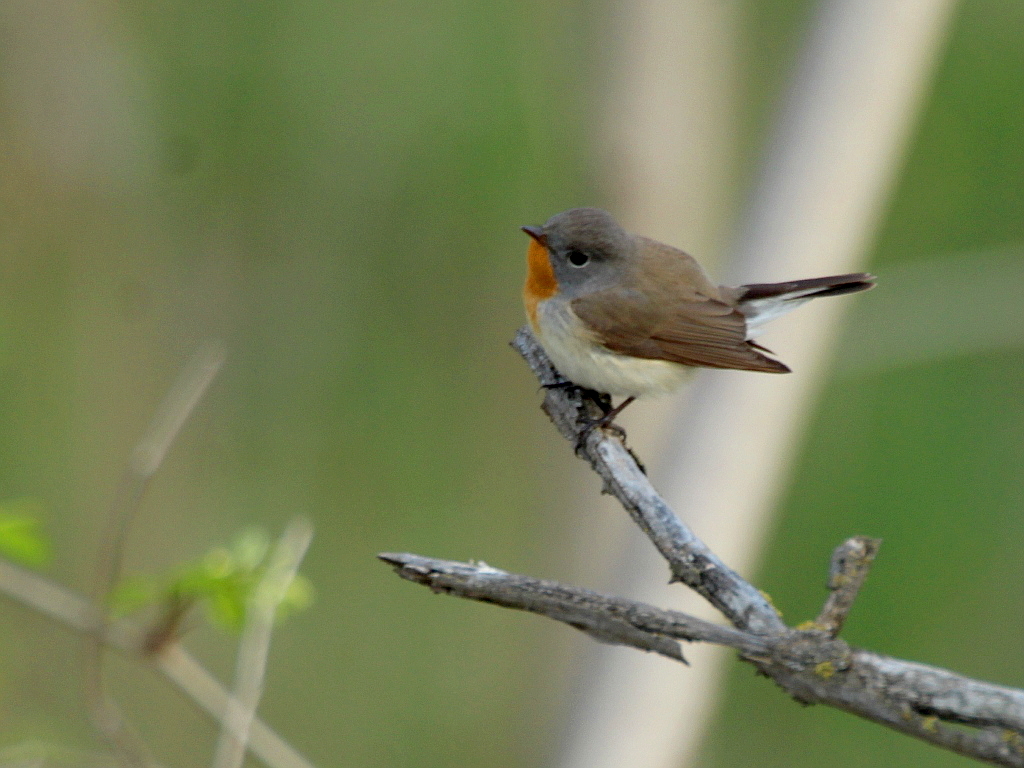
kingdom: Animalia
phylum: Chordata
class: Aves
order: Passeriformes
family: Muscicapidae
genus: Ficedula
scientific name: Ficedula parva
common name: Red-breasted flycatcher
